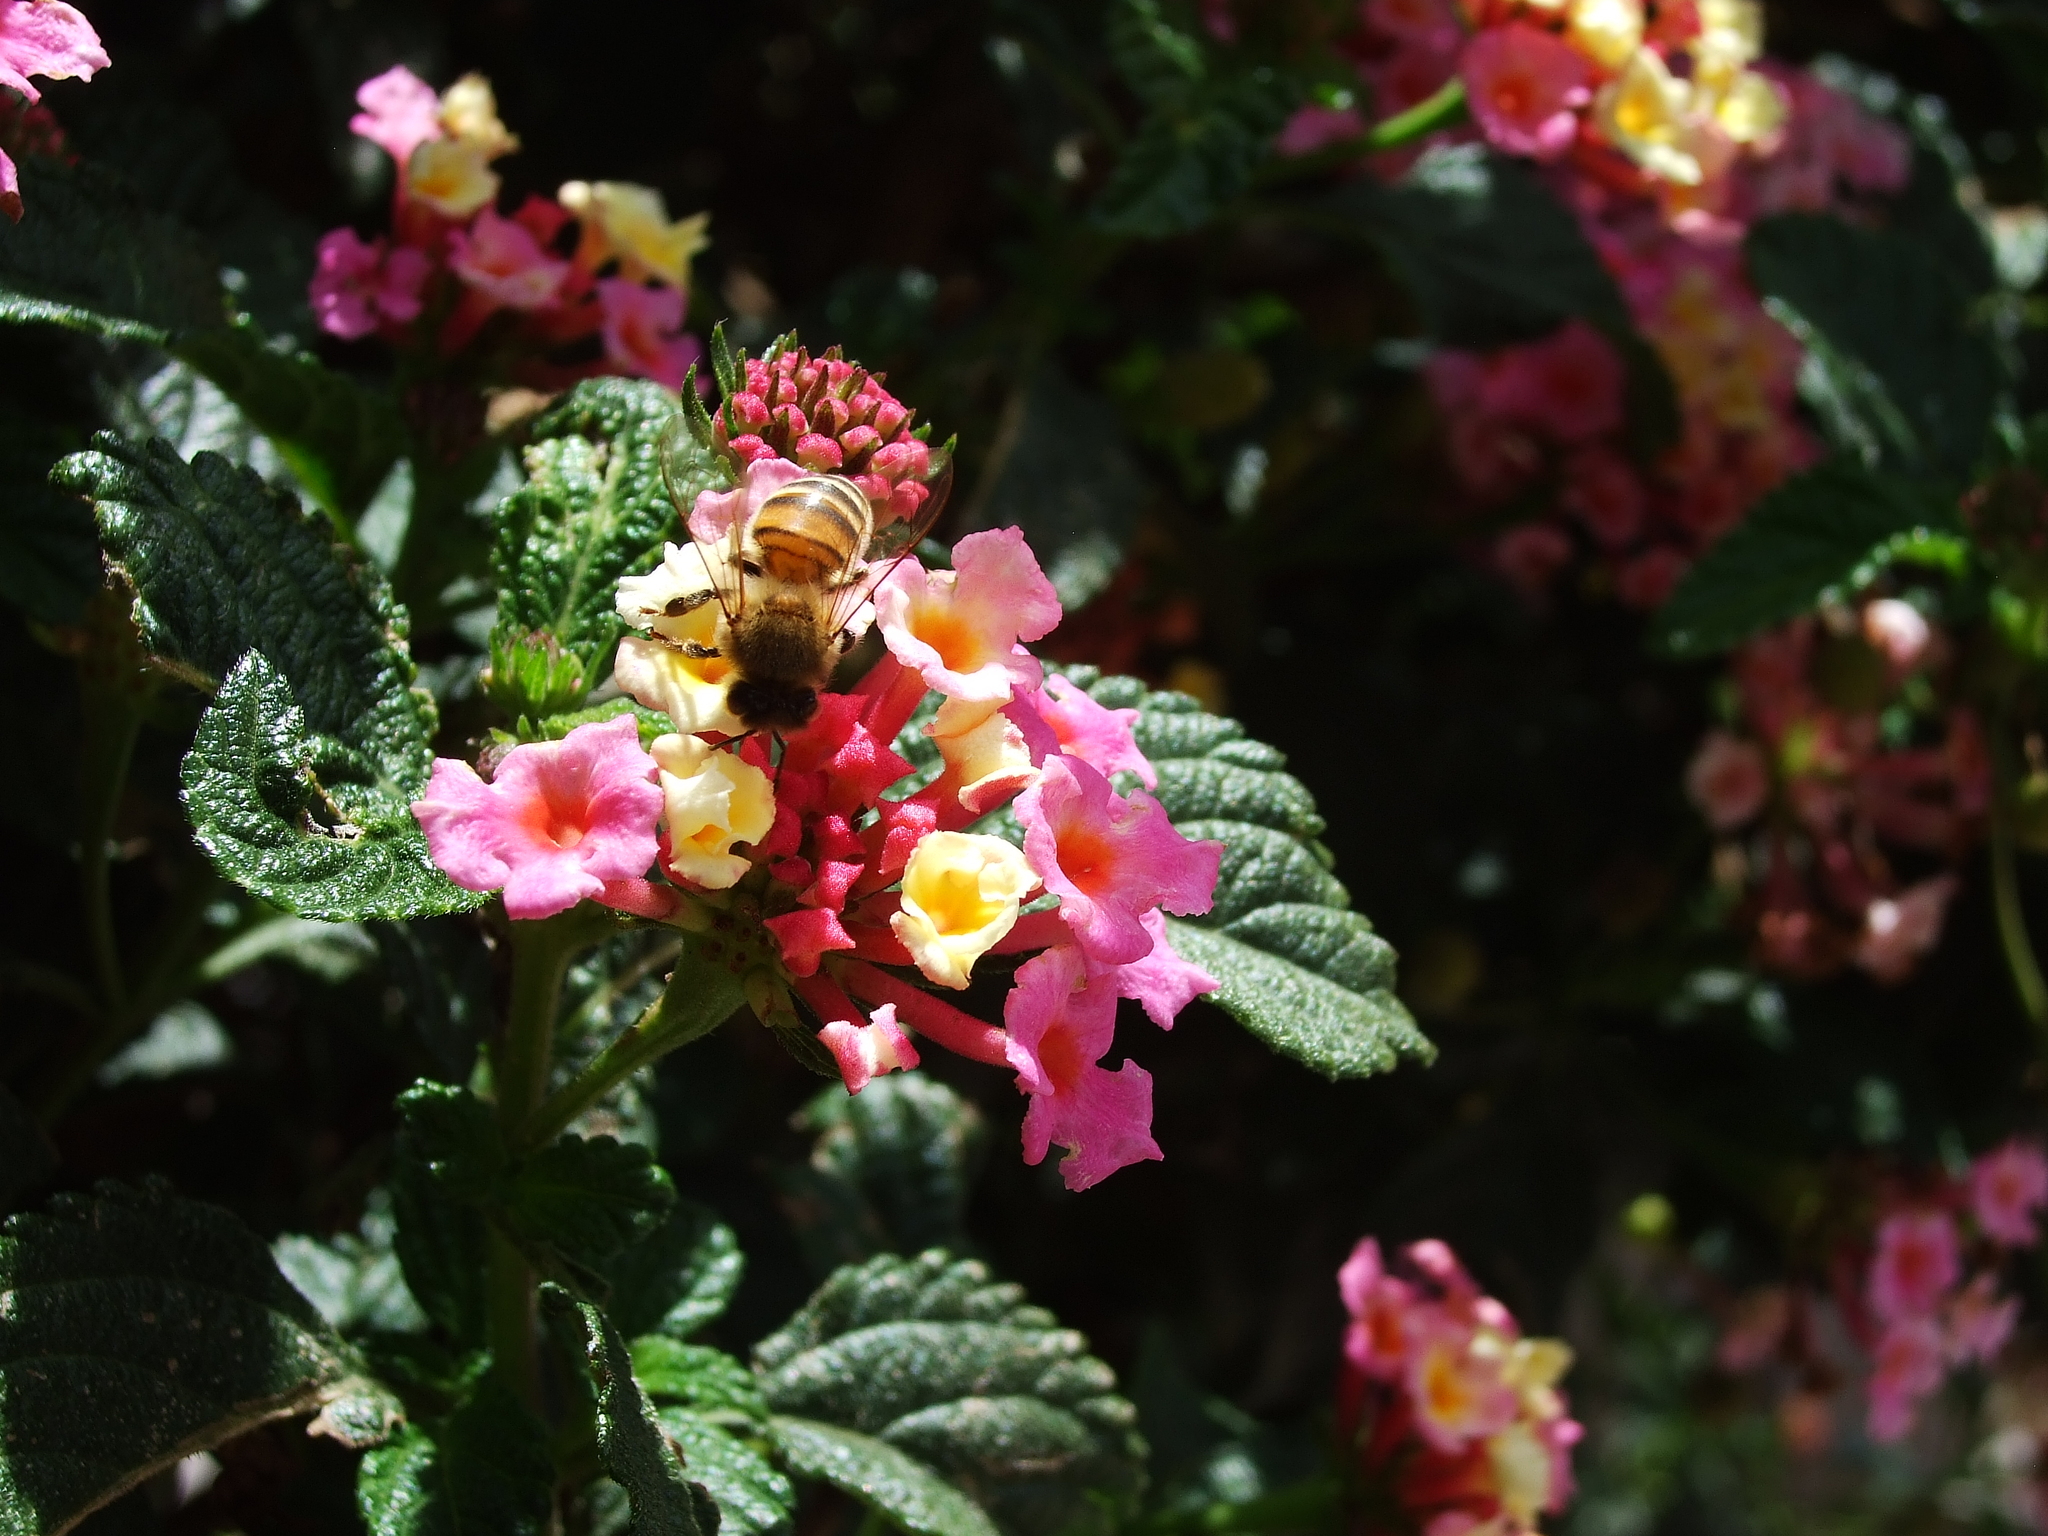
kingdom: Animalia
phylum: Arthropoda
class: Insecta
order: Hymenoptera
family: Apidae
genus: Apis
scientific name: Apis mellifera
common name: Honey bee
